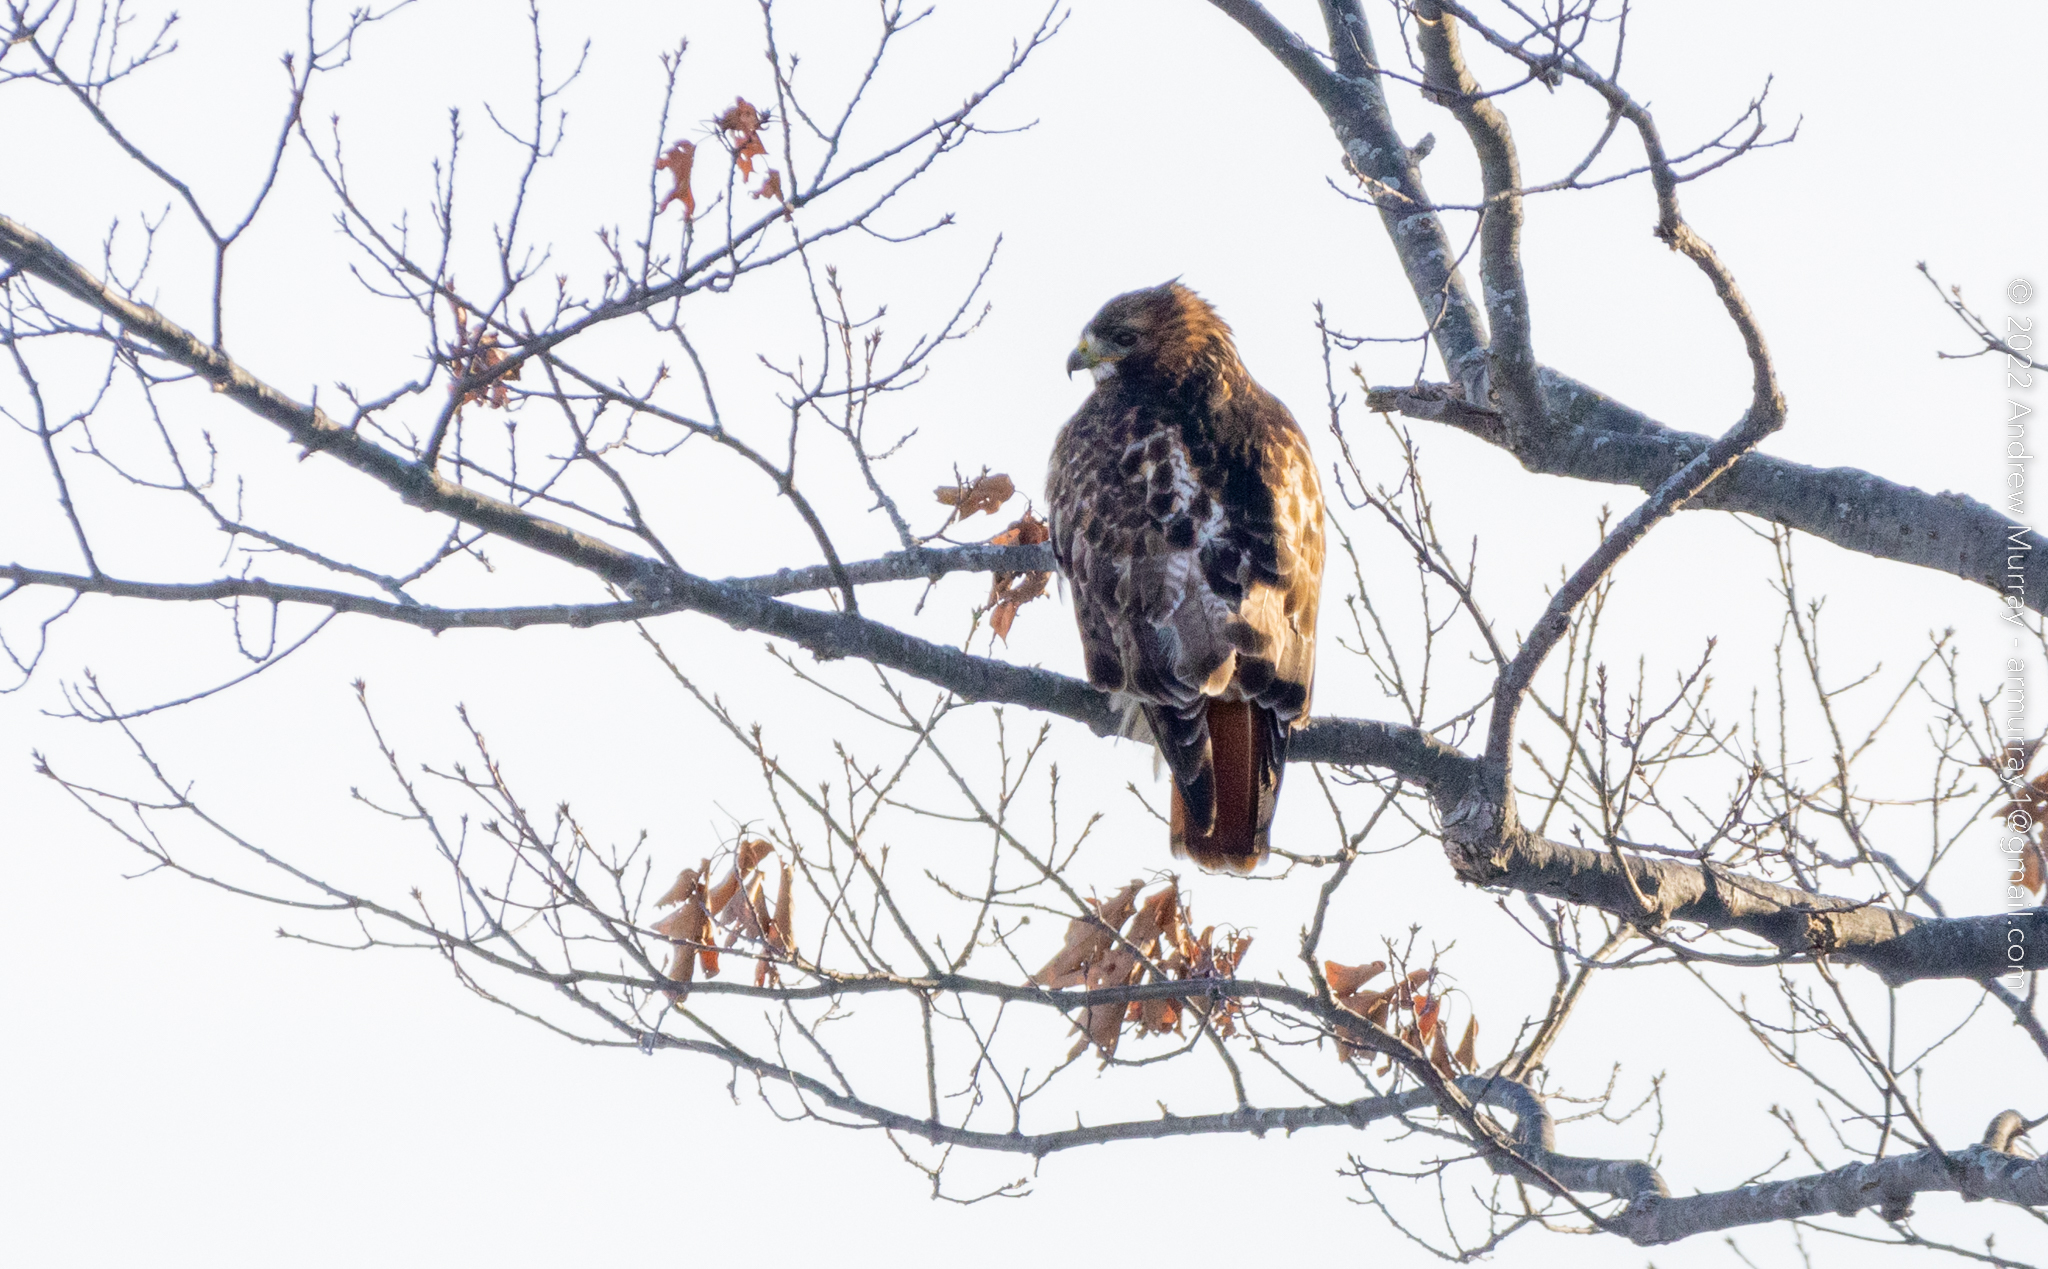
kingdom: Animalia
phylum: Chordata
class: Aves
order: Accipitriformes
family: Accipitridae
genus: Buteo
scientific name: Buteo jamaicensis
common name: Red-tailed hawk
